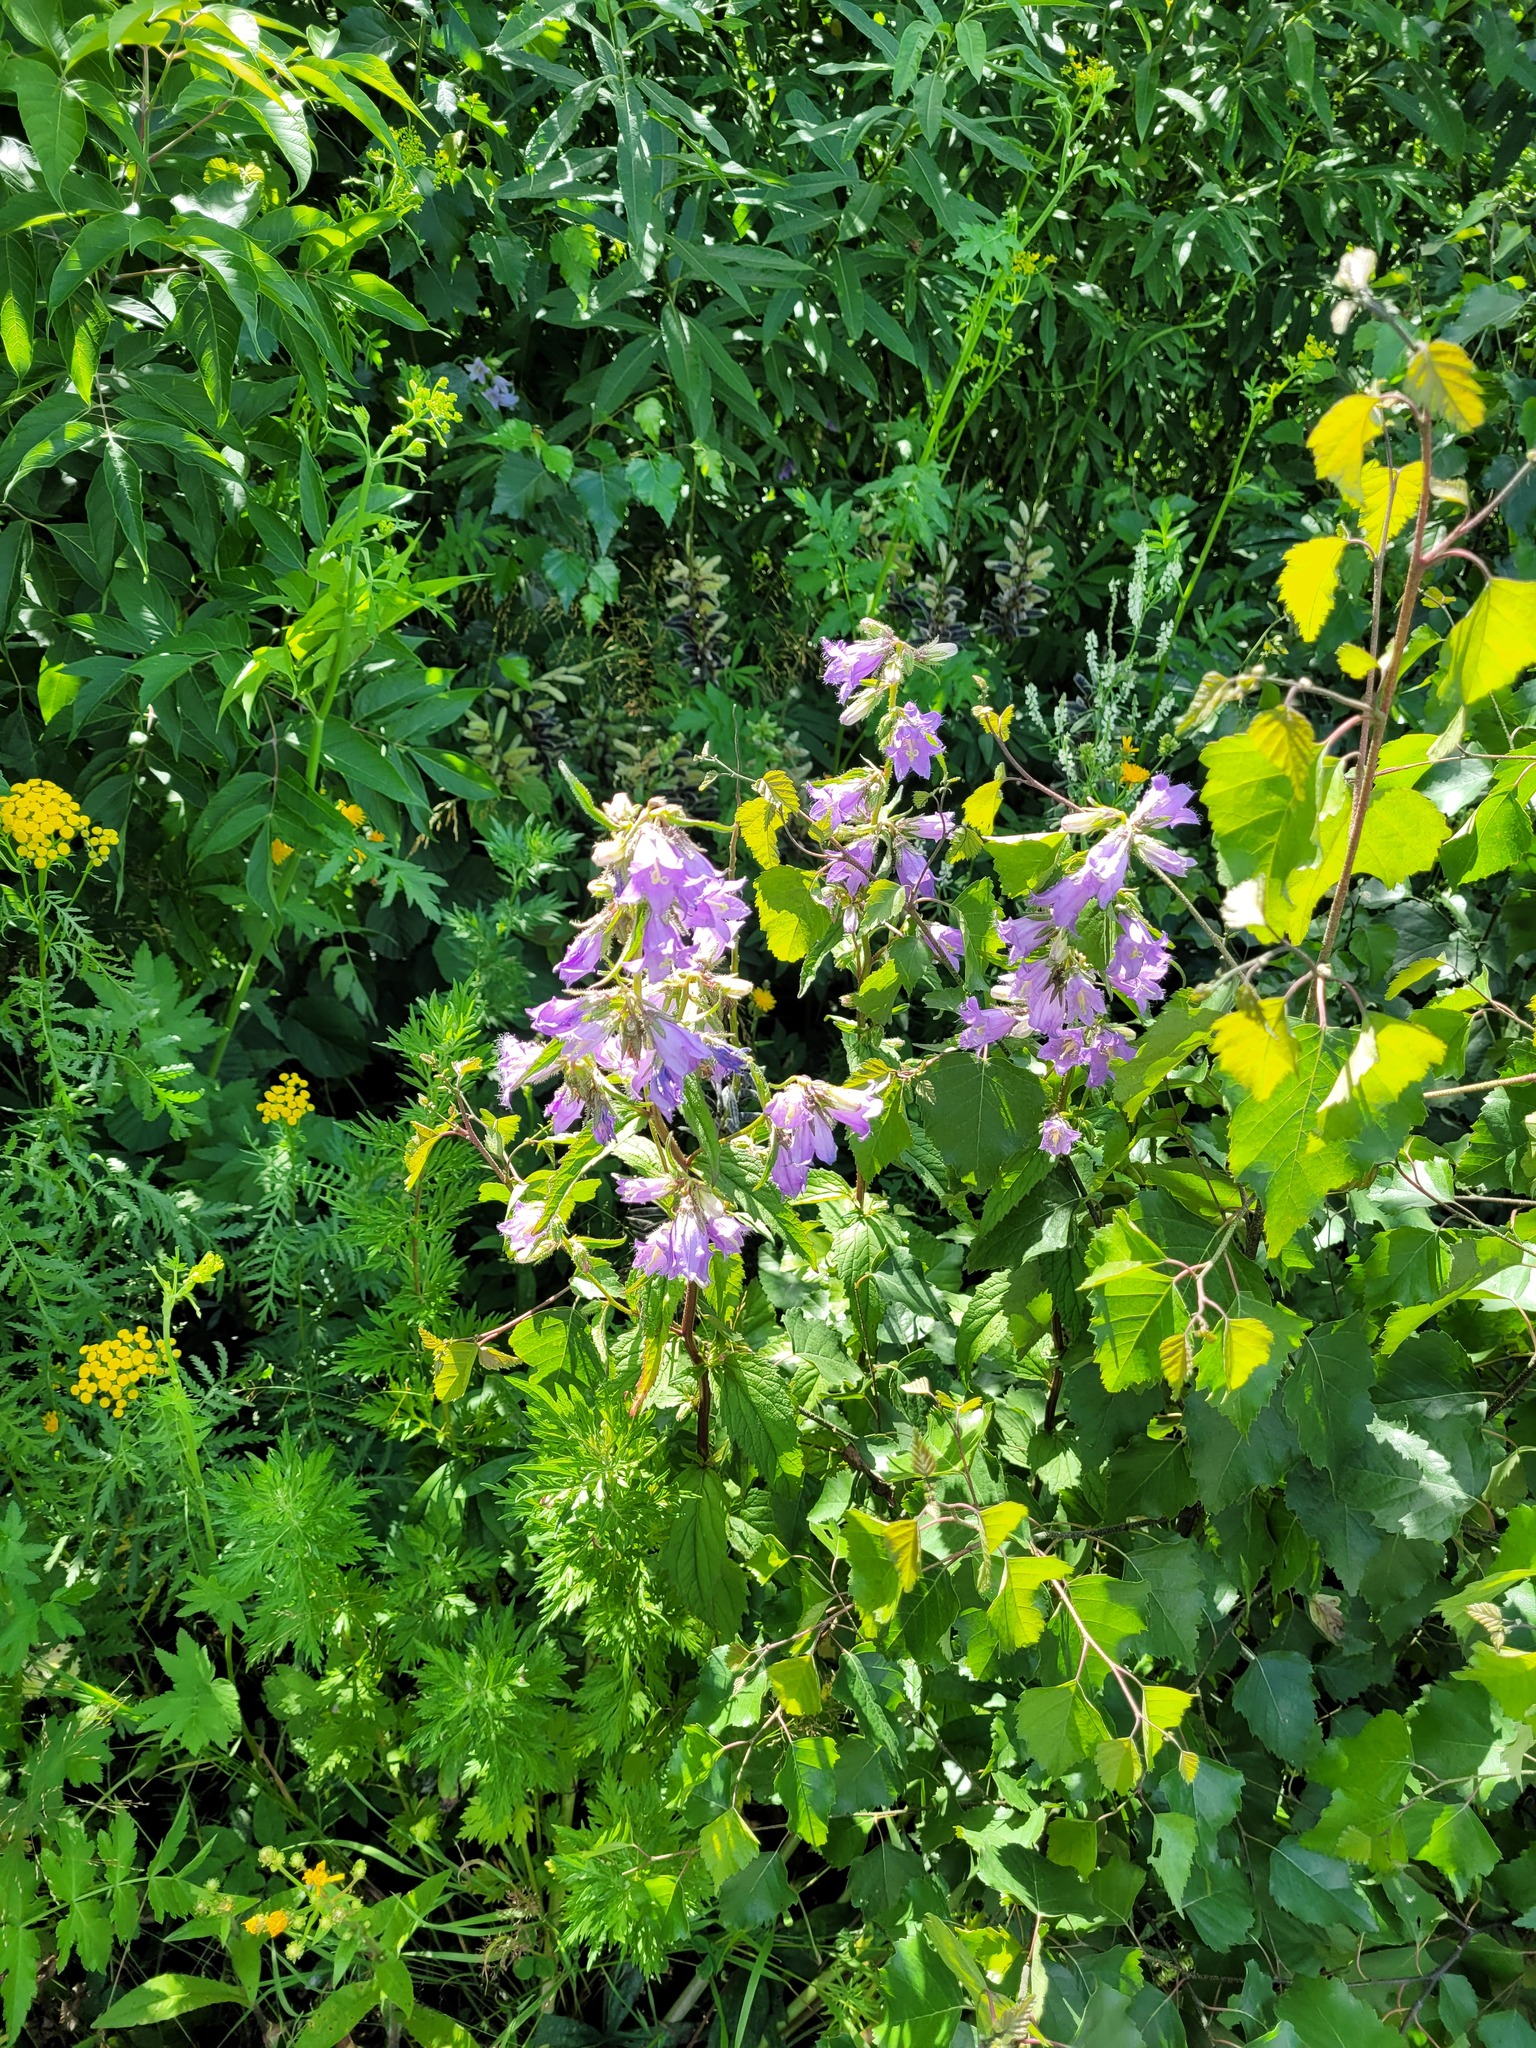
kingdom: Plantae
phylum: Tracheophyta
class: Magnoliopsida
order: Asterales
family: Campanulaceae
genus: Campanula
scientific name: Campanula trachelium
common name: Nettle-leaved bellflower
